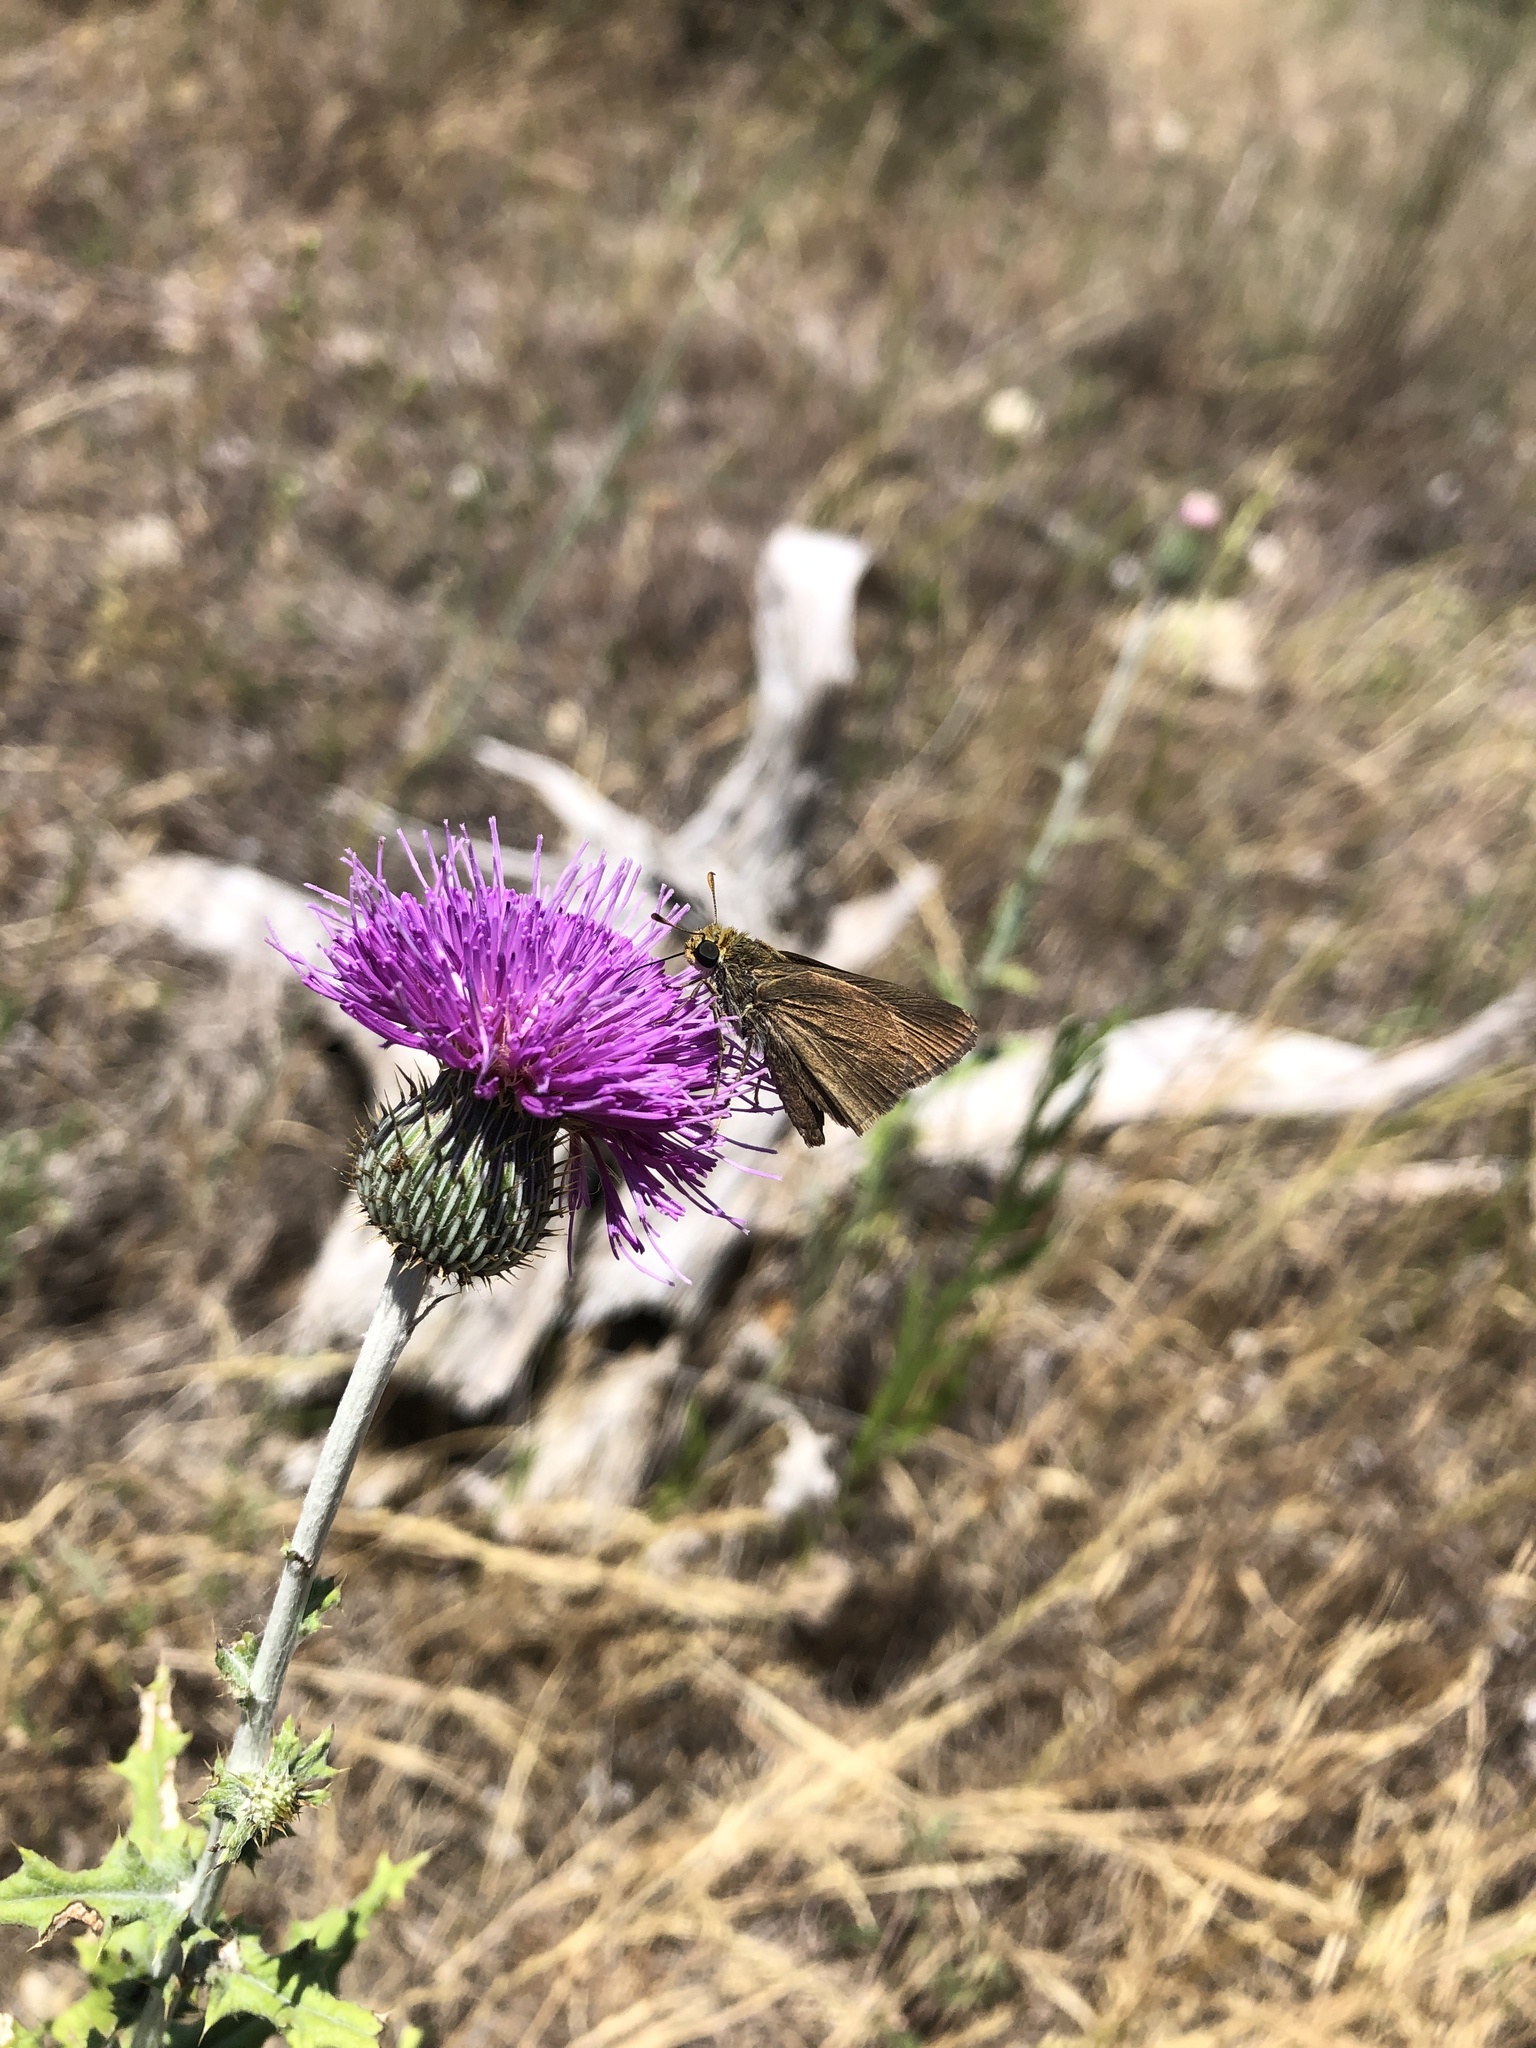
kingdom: Animalia
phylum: Arthropoda
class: Insecta
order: Lepidoptera
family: Hesperiidae
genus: Euphyes
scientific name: Euphyes vestris
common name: Dun skipper
